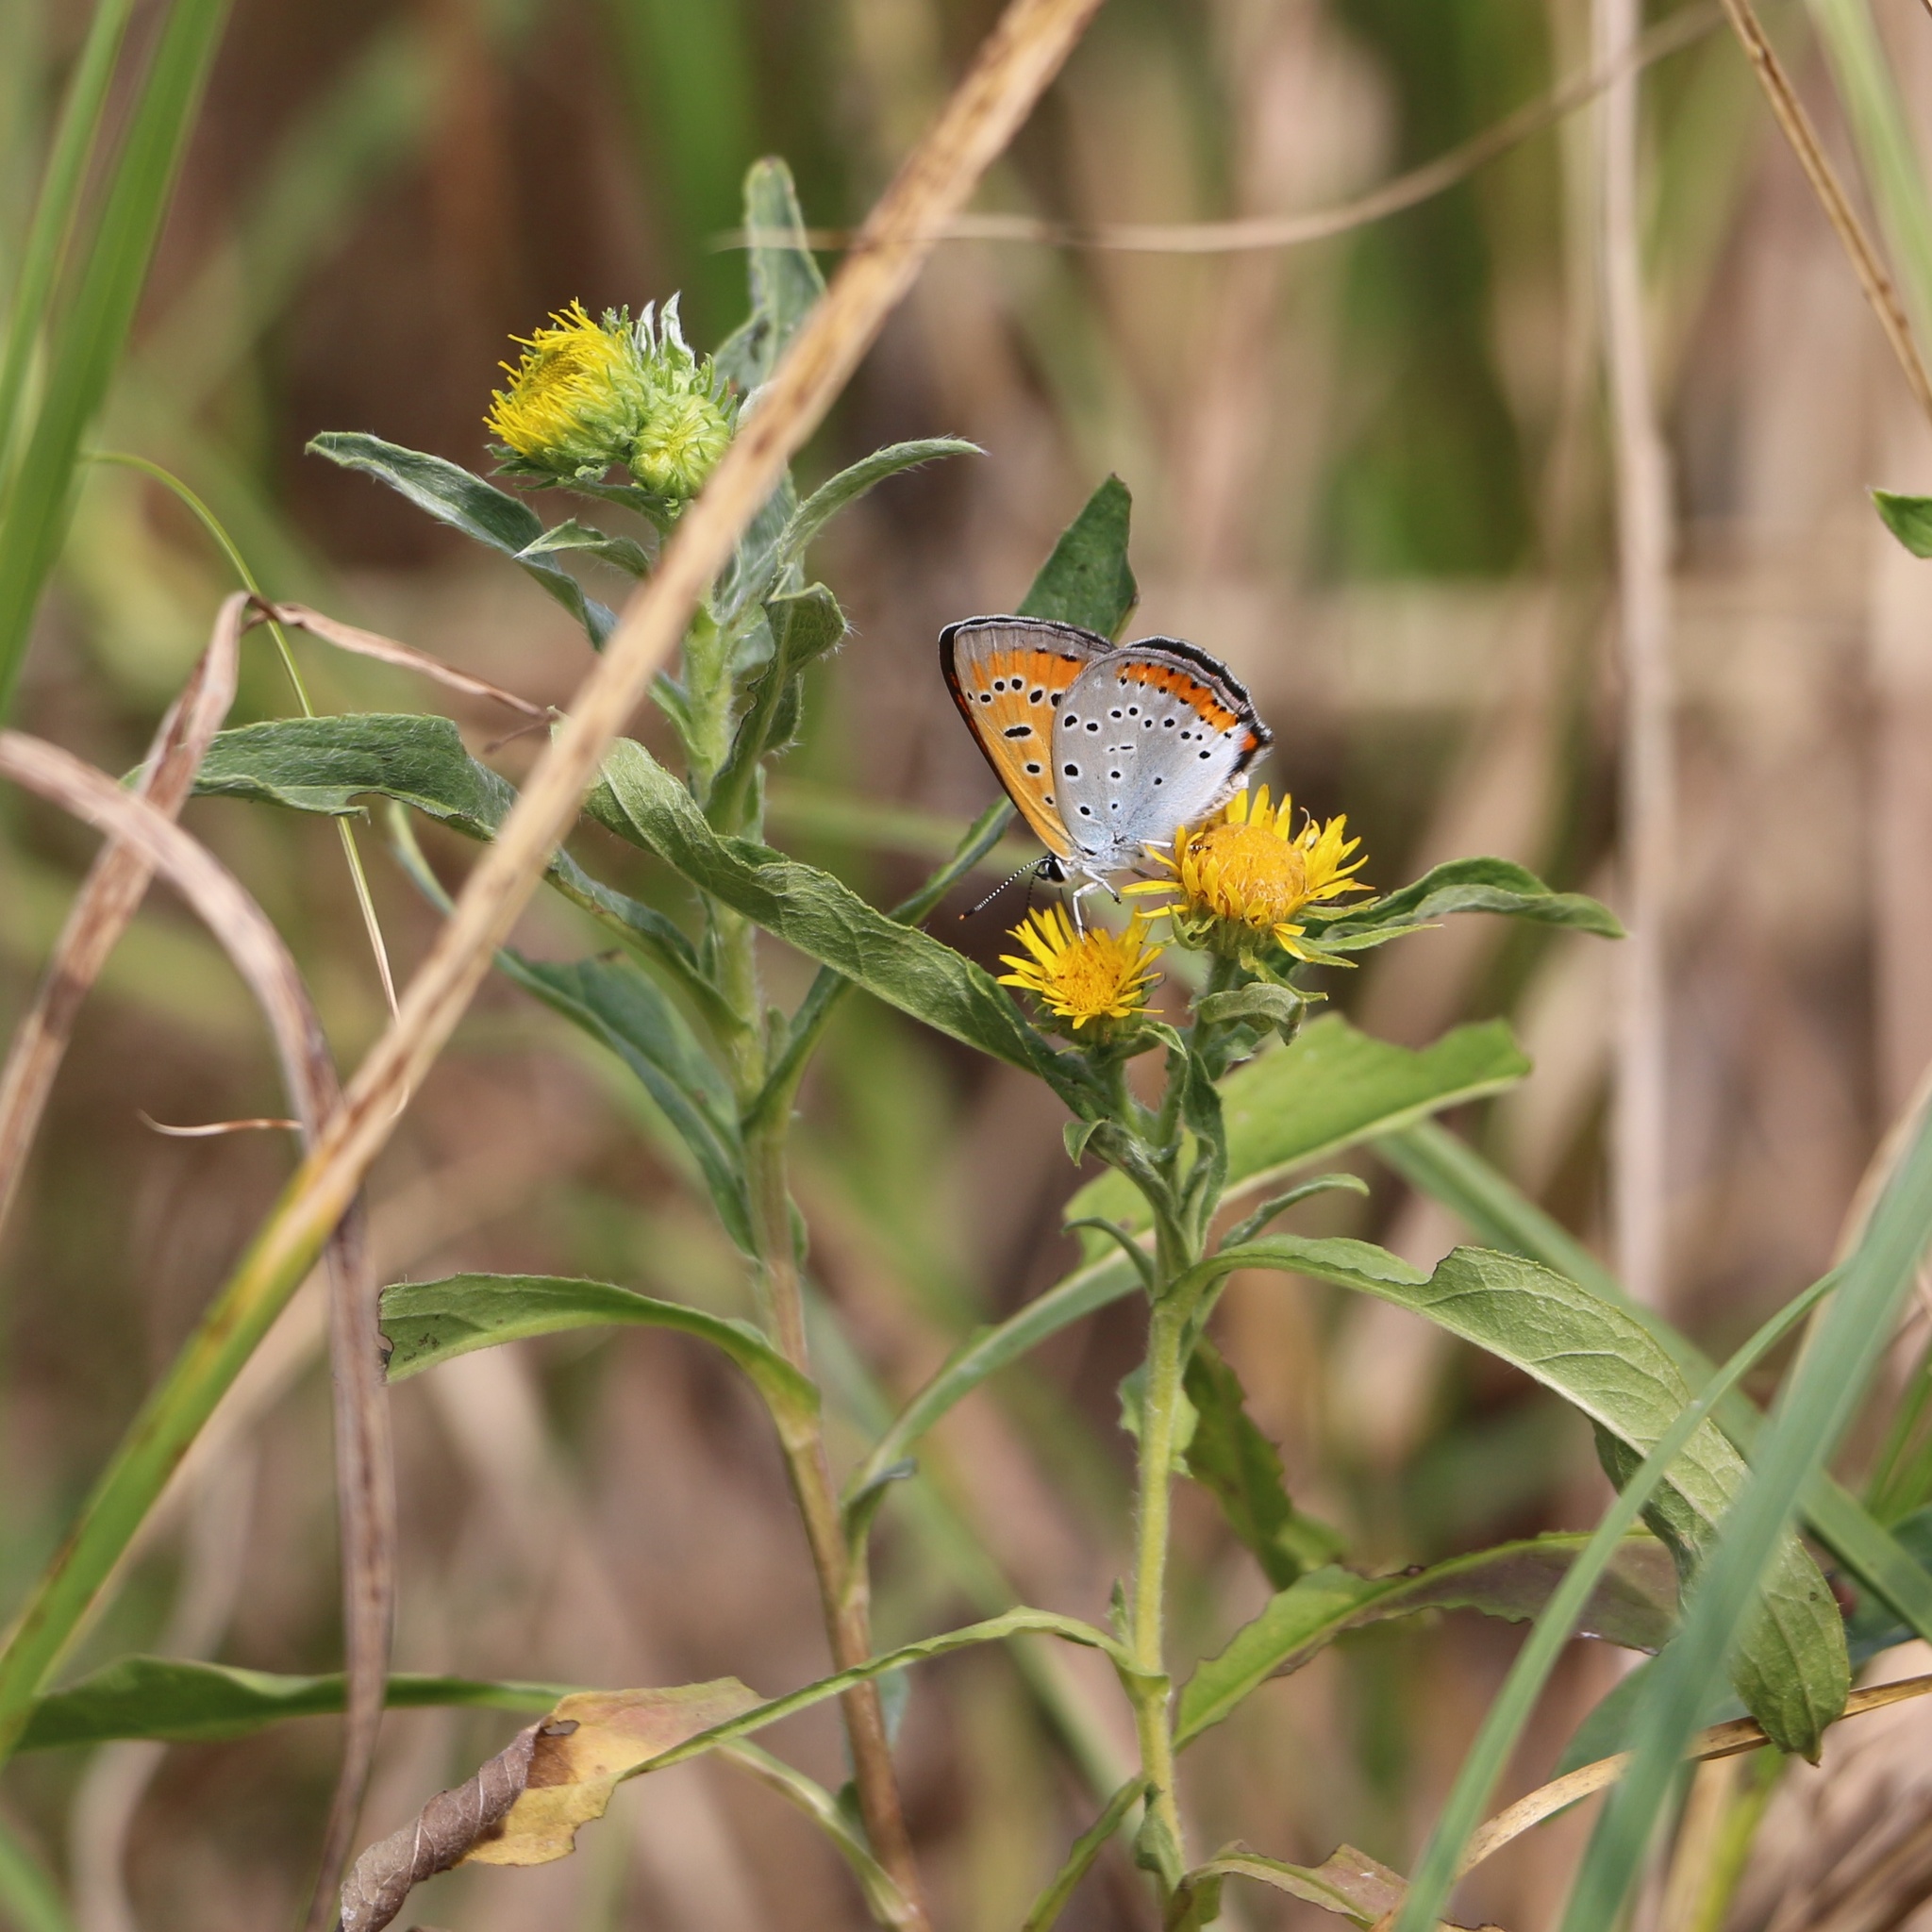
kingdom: Animalia
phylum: Arthropoda
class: Insecta
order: Lepidoptera
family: Lycaenidae
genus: Lycaena
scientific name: Lycaena dispar
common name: Large copper
